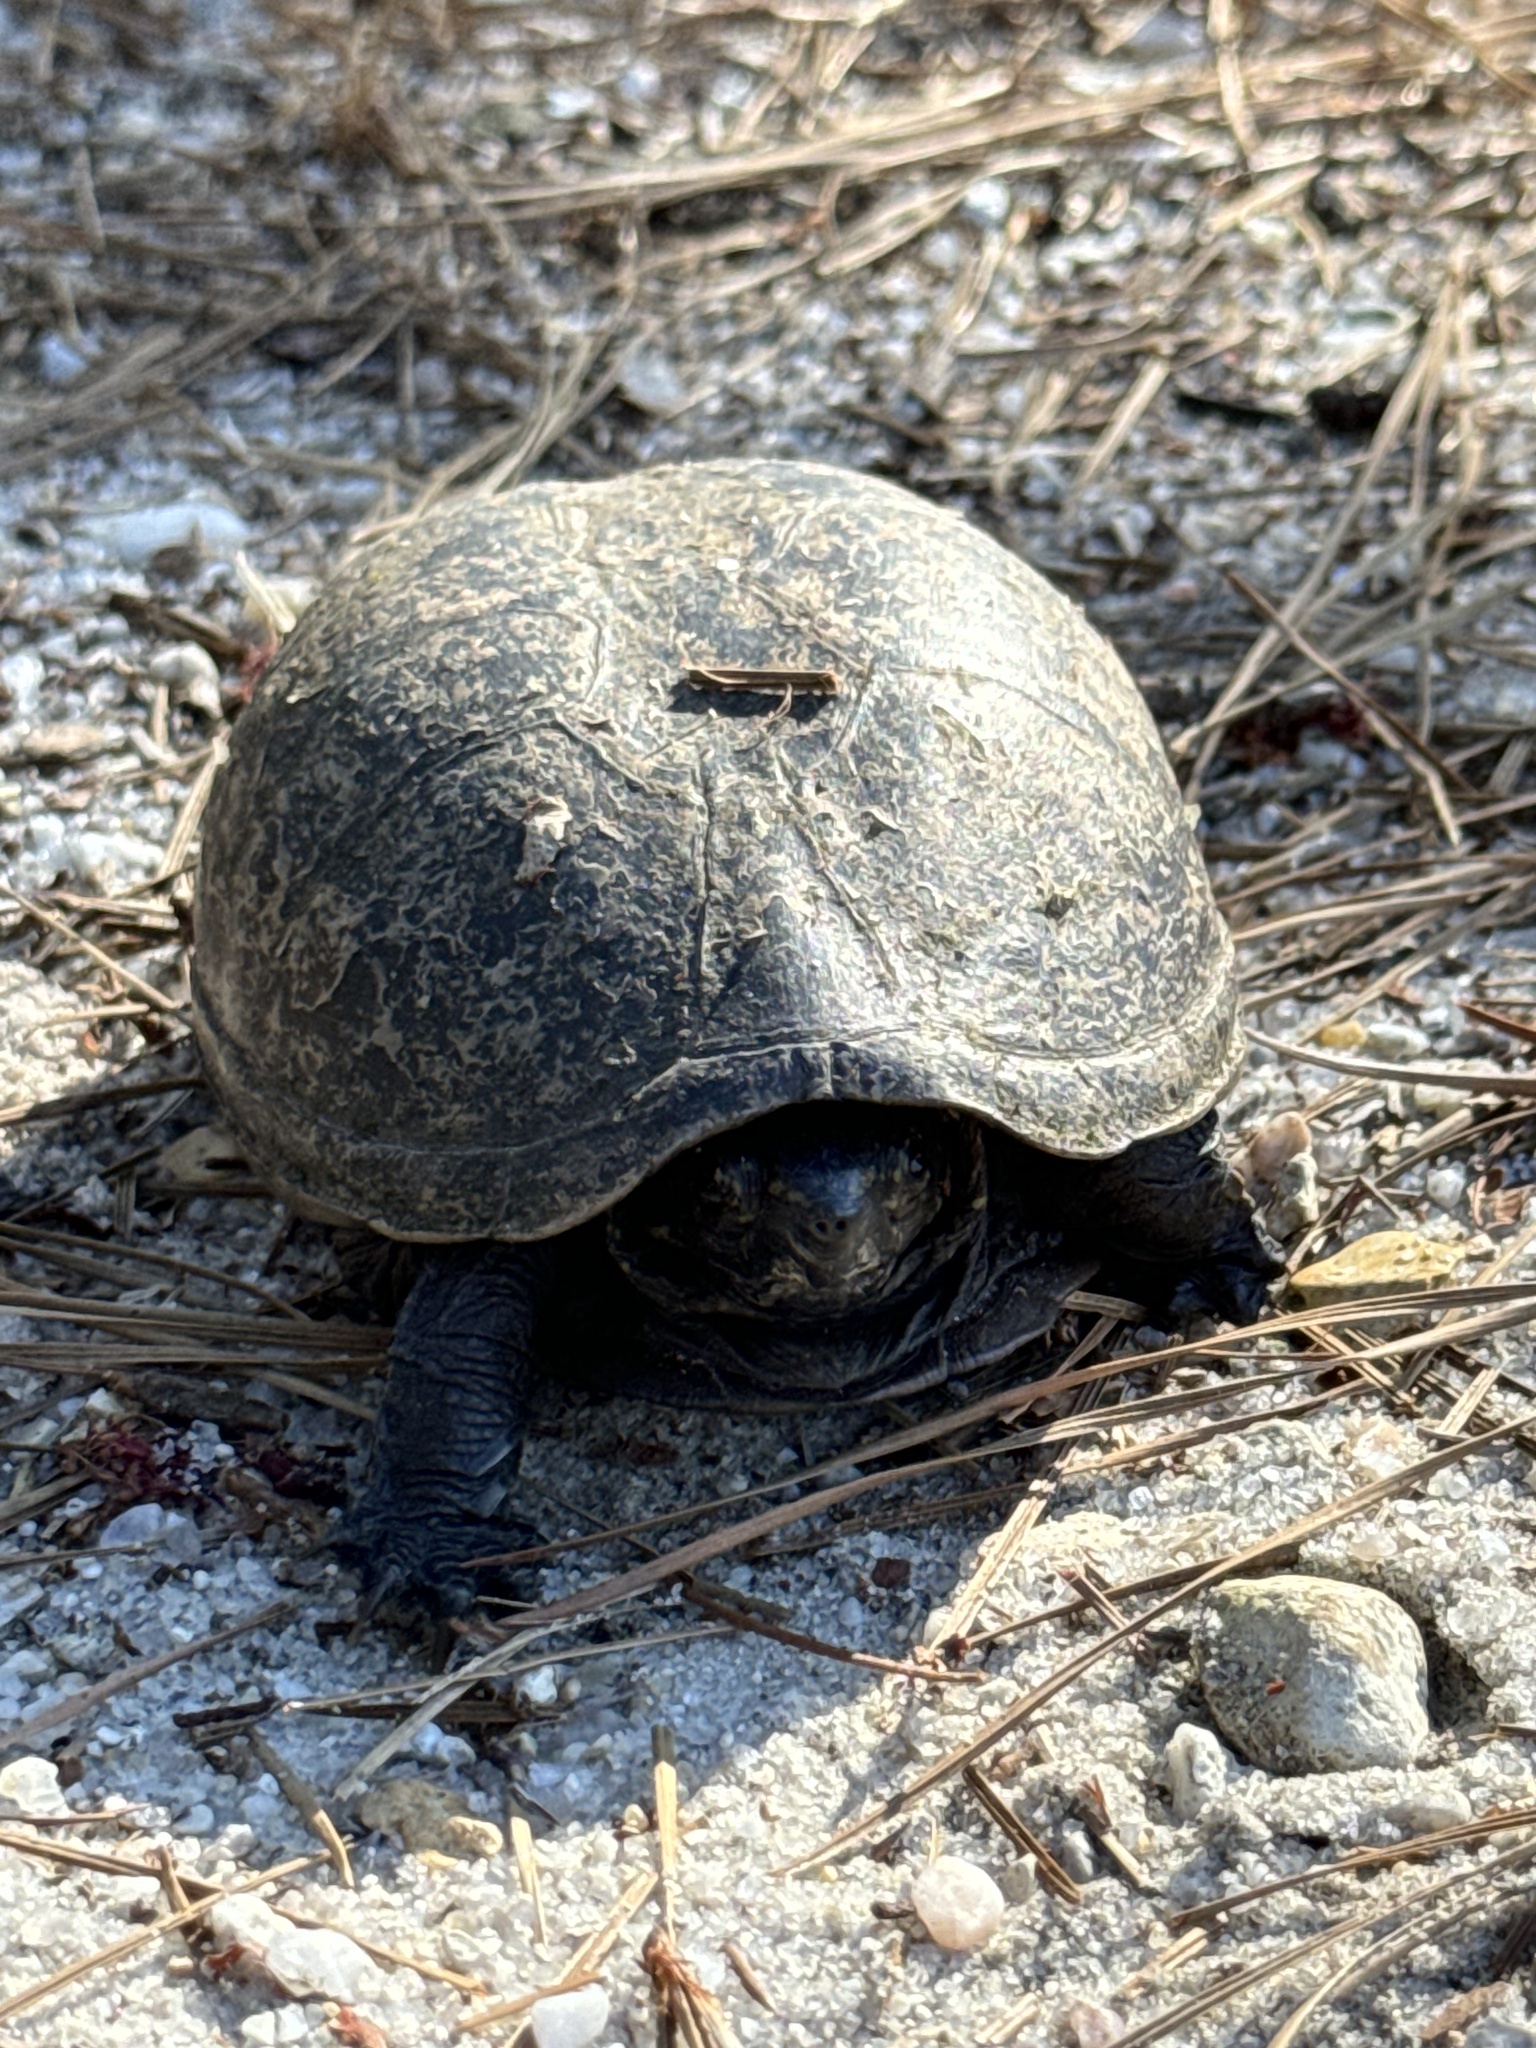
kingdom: Animalia
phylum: Chordata
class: Testudines
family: Kinosternidae
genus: Kinosternon
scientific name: Kinosternon baurii
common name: Striped mud turtle
